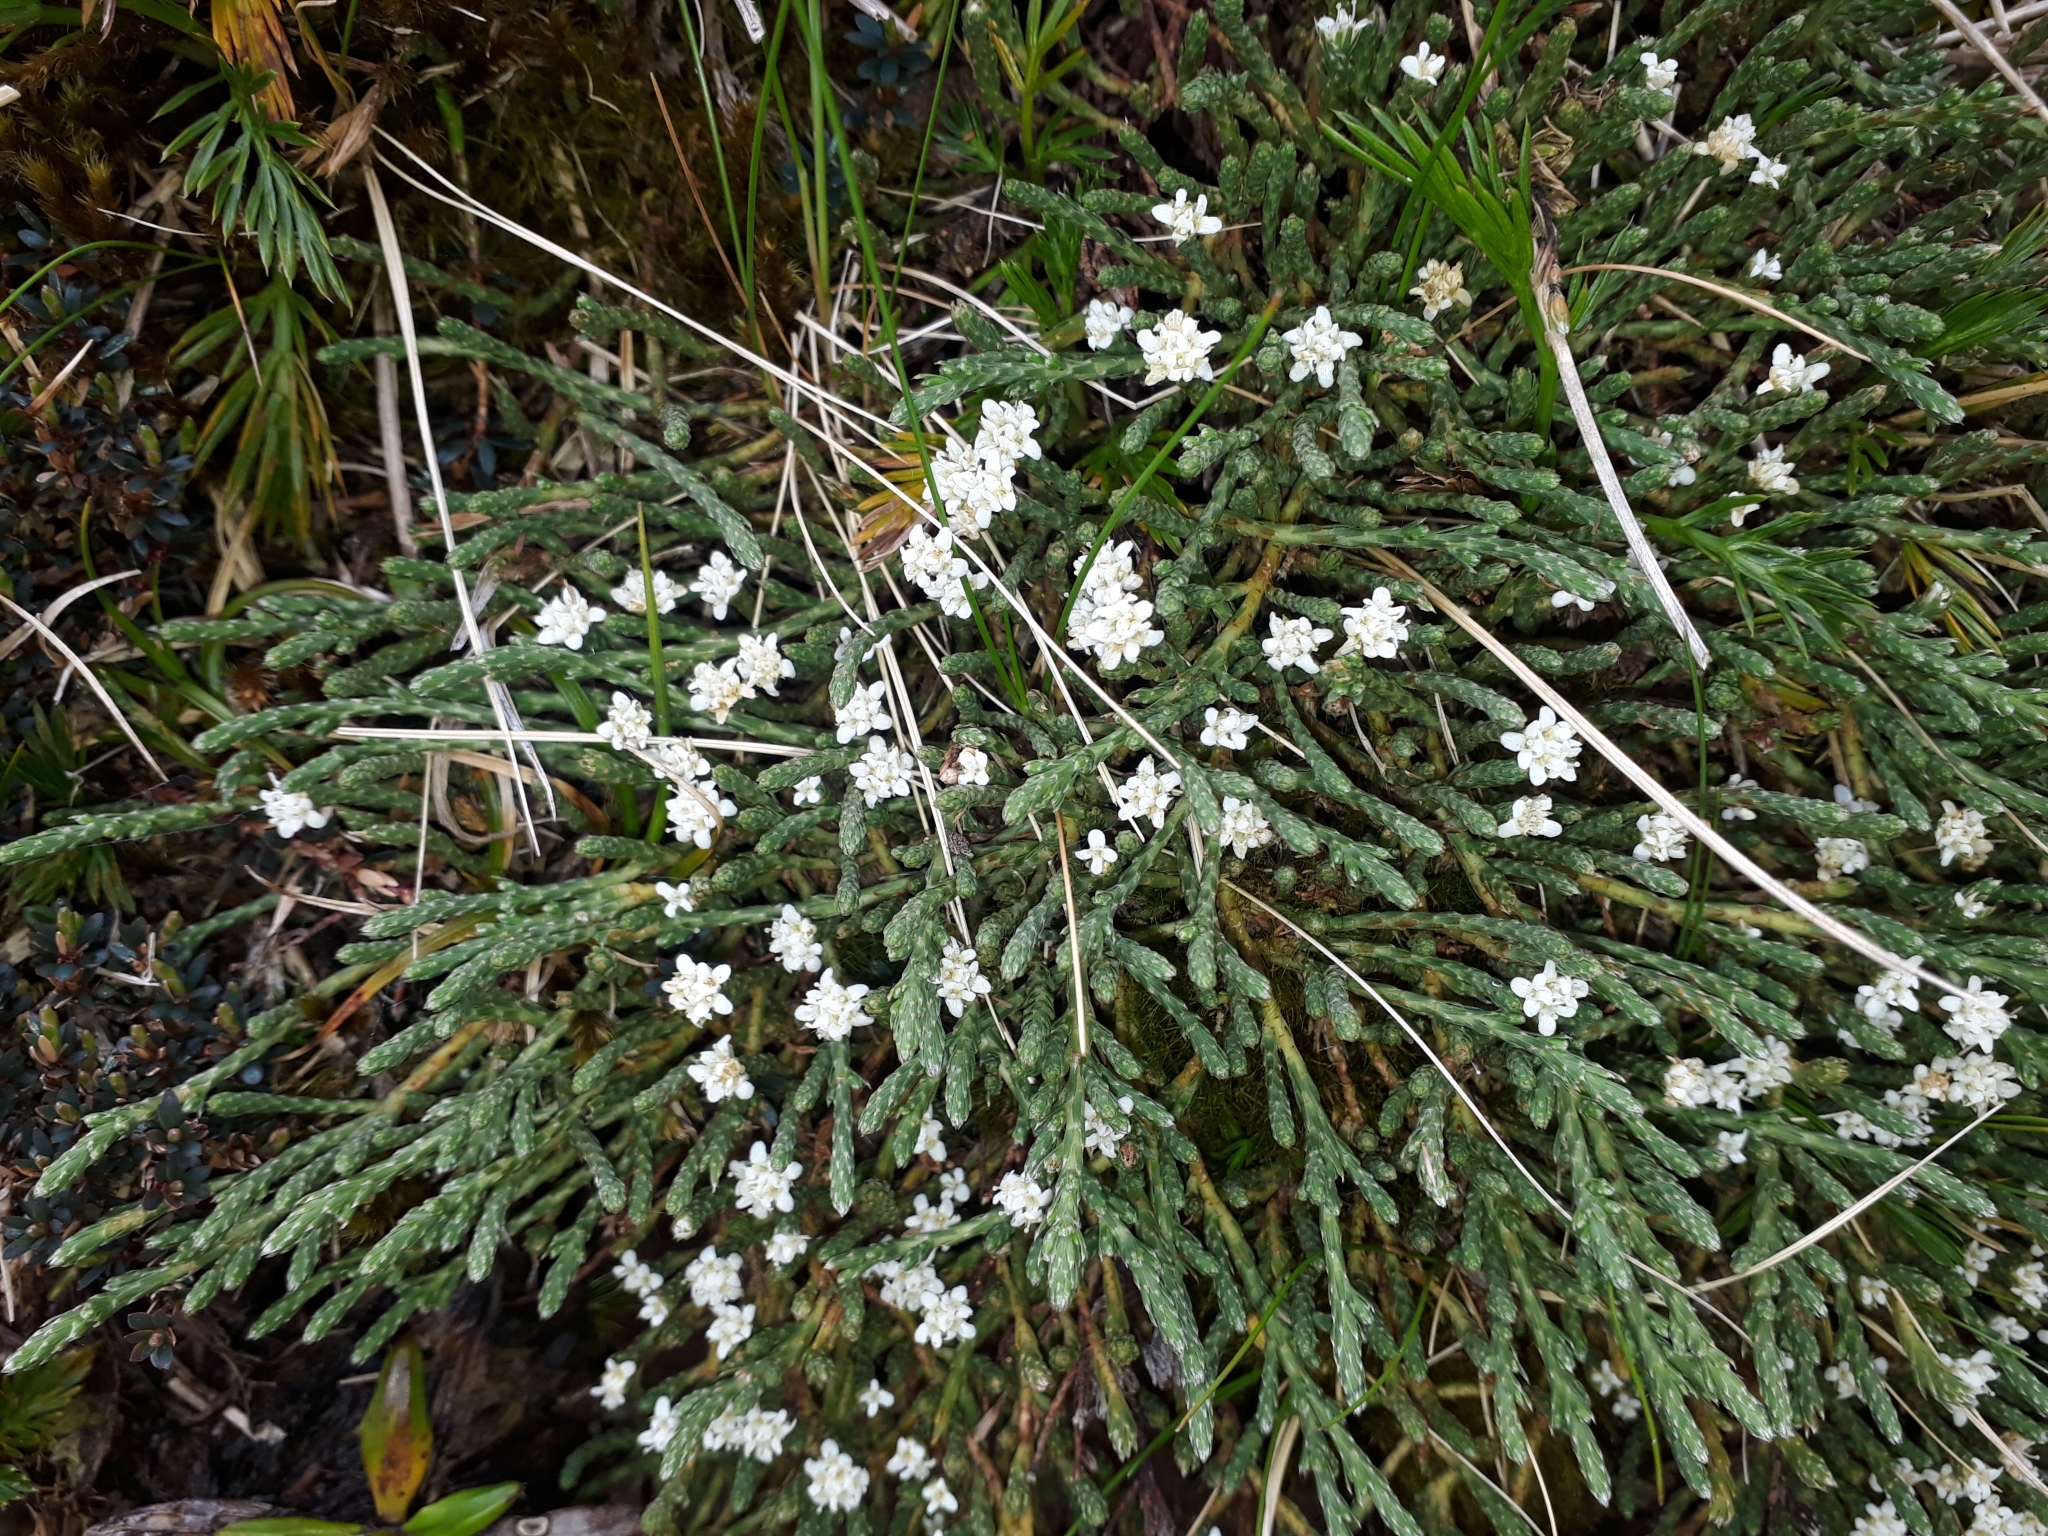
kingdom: Plantae
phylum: Tracheophyta
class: Magnoliopsida
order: Malvales
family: Thymelaeaceae
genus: Kelleria
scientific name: Kelleria dieffenbachii
